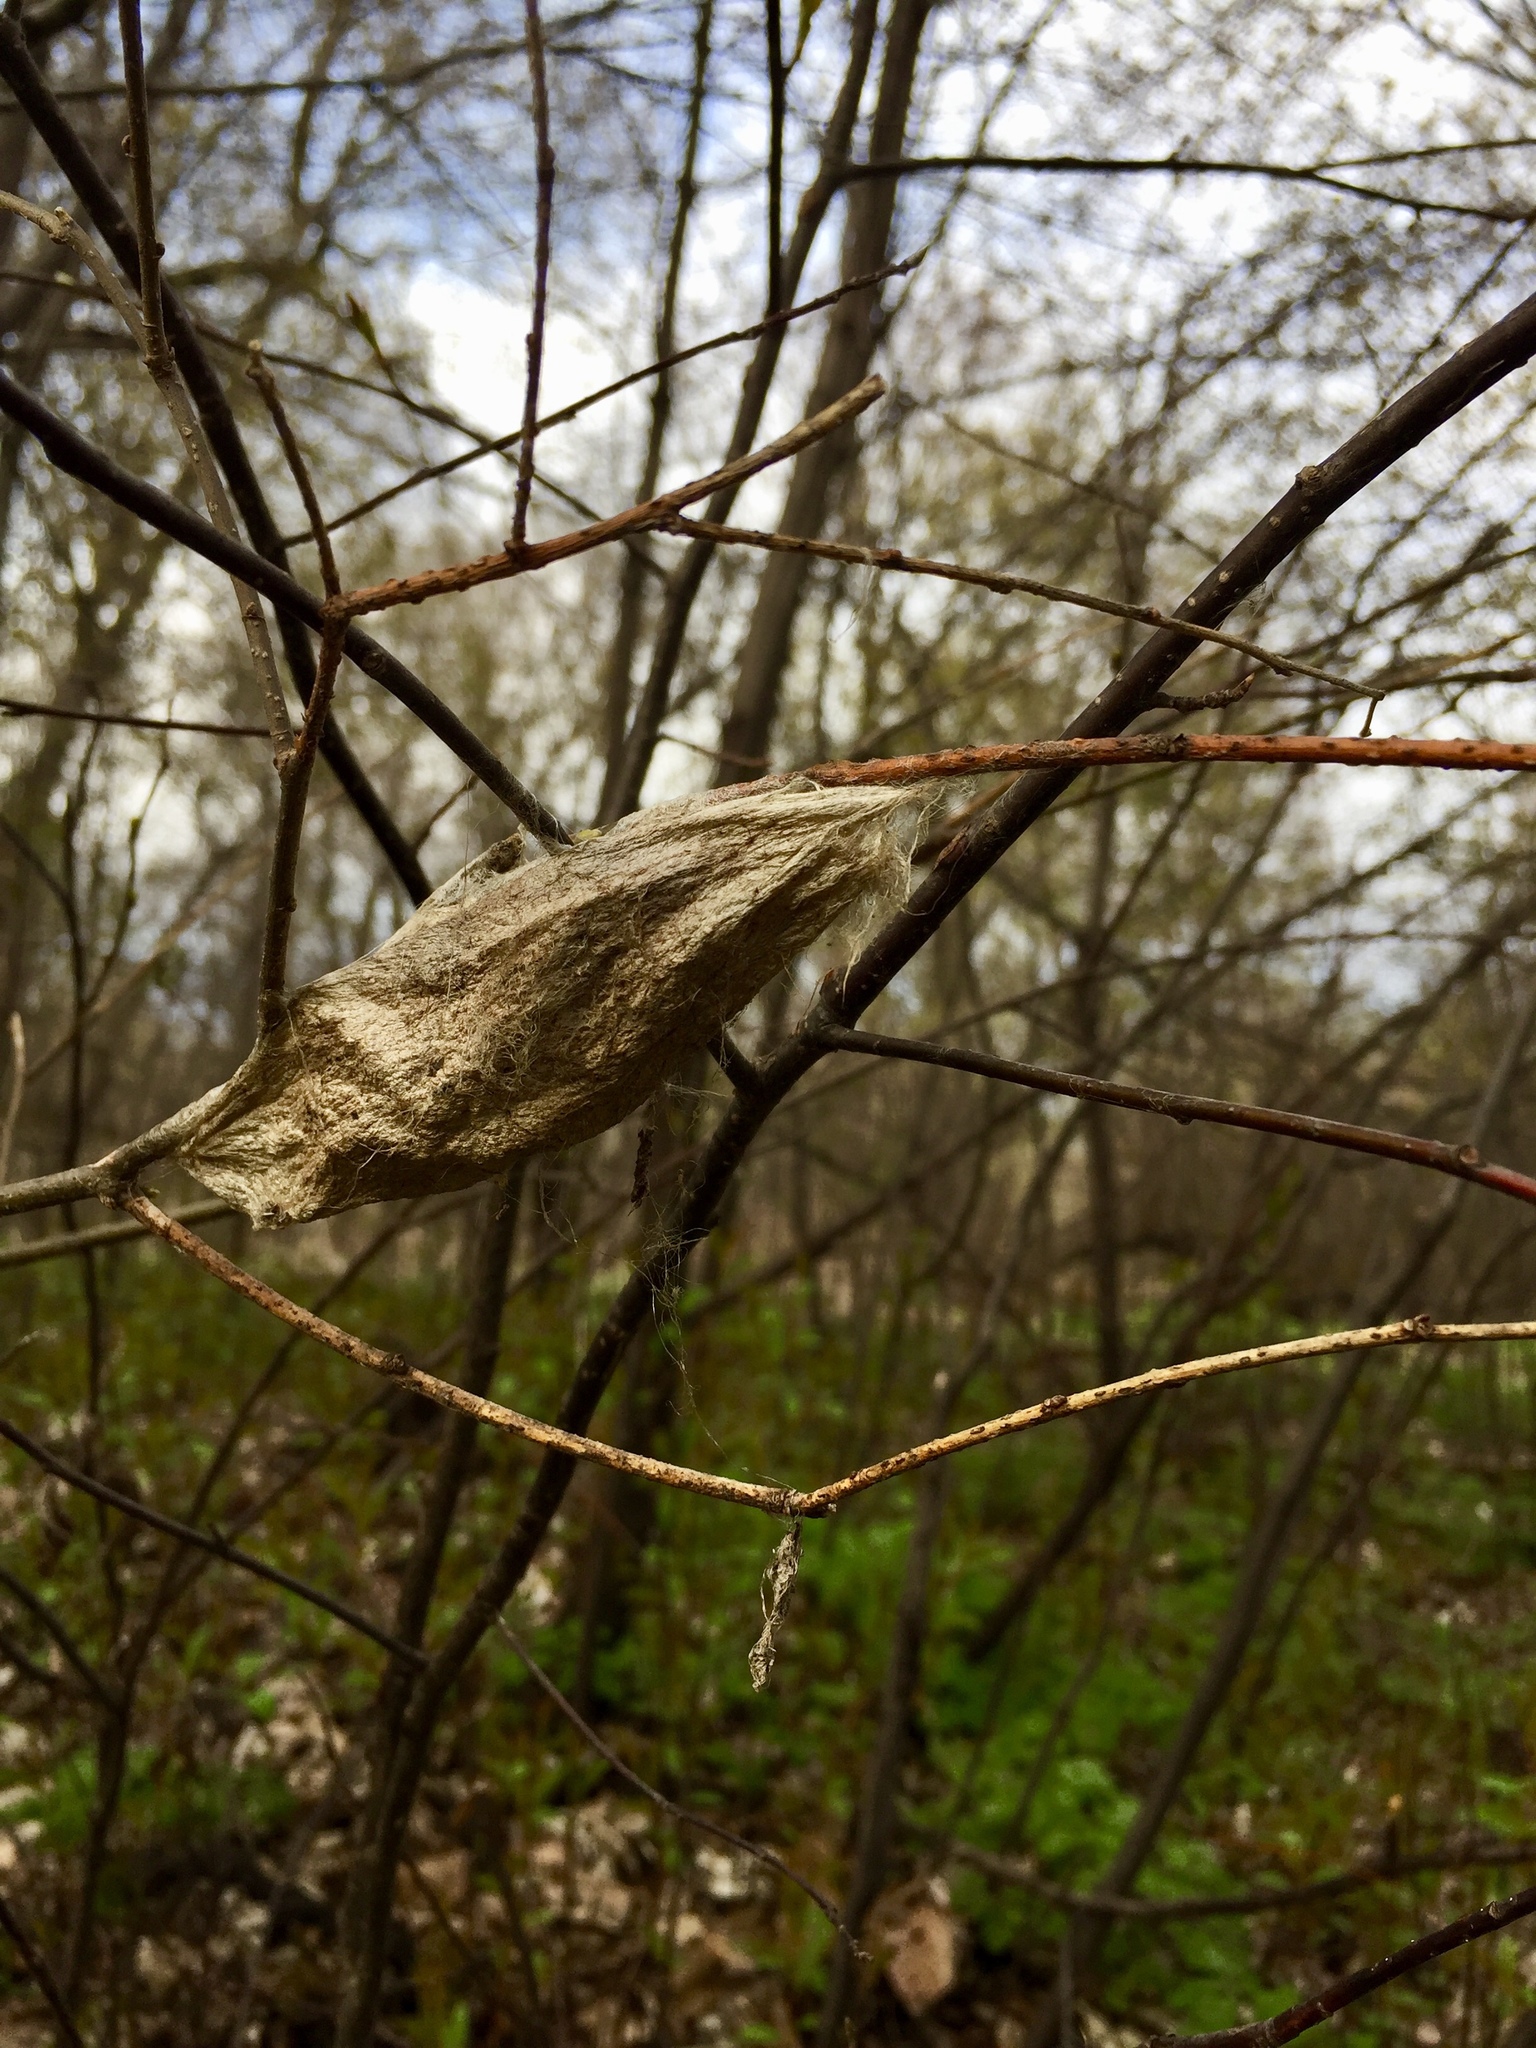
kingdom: Animalia
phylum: Arthropoda
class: Insecta
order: Lepidoptera
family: Saturniidae
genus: Hyalophora
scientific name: Hyalophora cecropia
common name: Cecropia silkmoth
